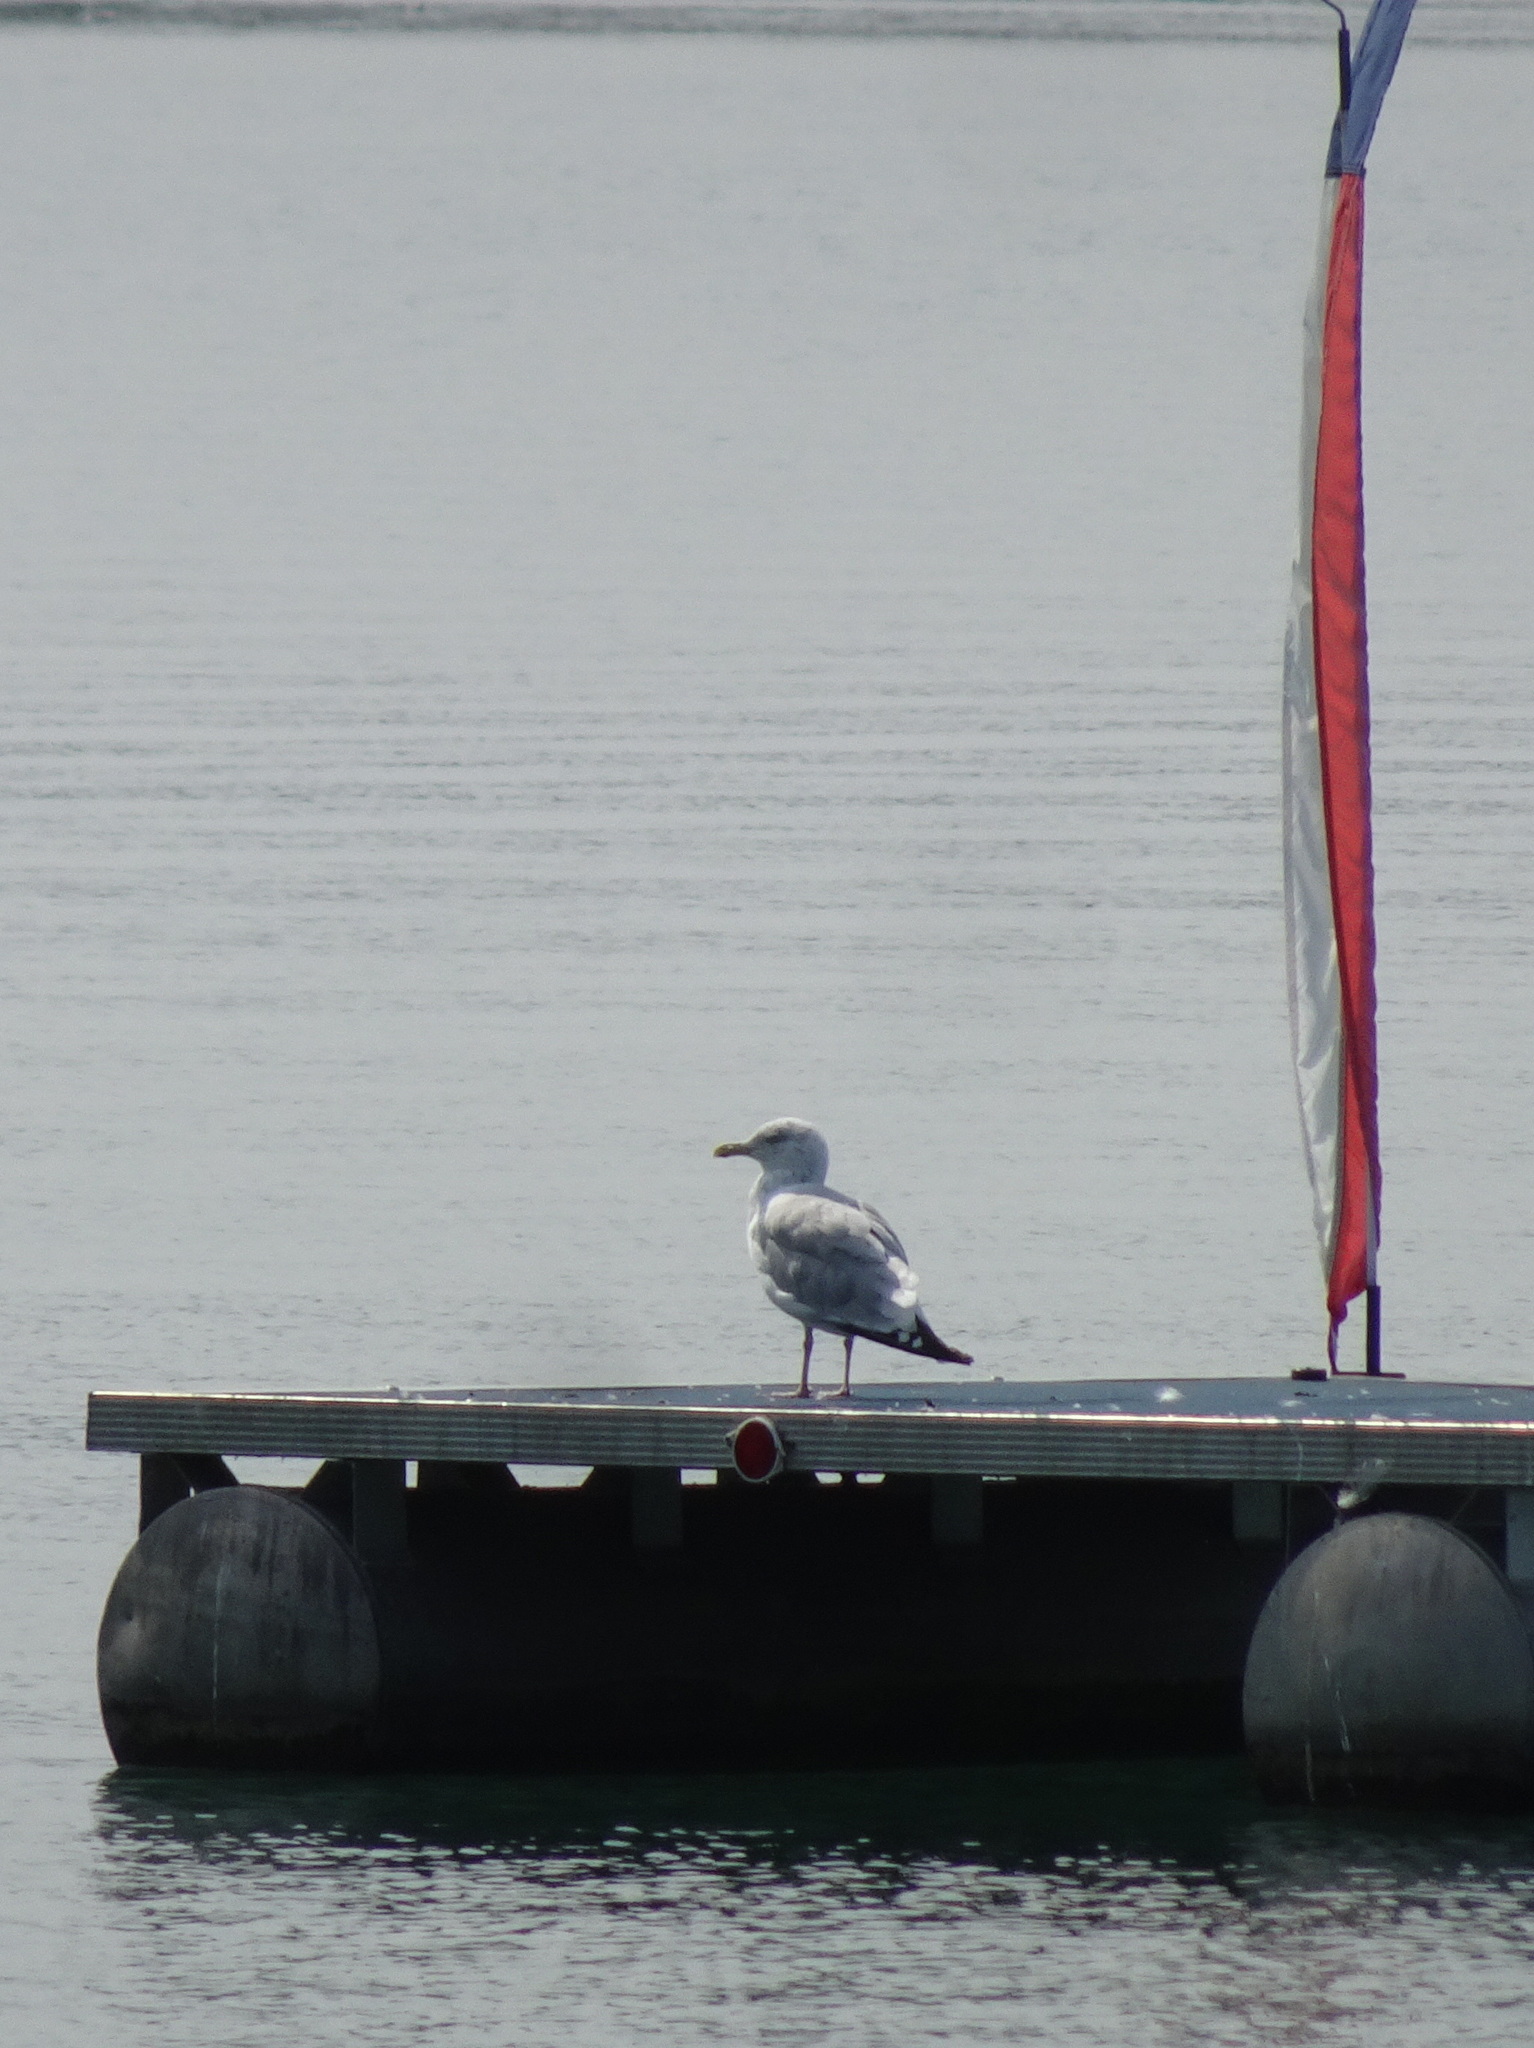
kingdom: Animalia
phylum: Chordata
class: Aves
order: Charadriiformes
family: Laridae
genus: Larus
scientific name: Larus smithsonianus
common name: American herring gull
